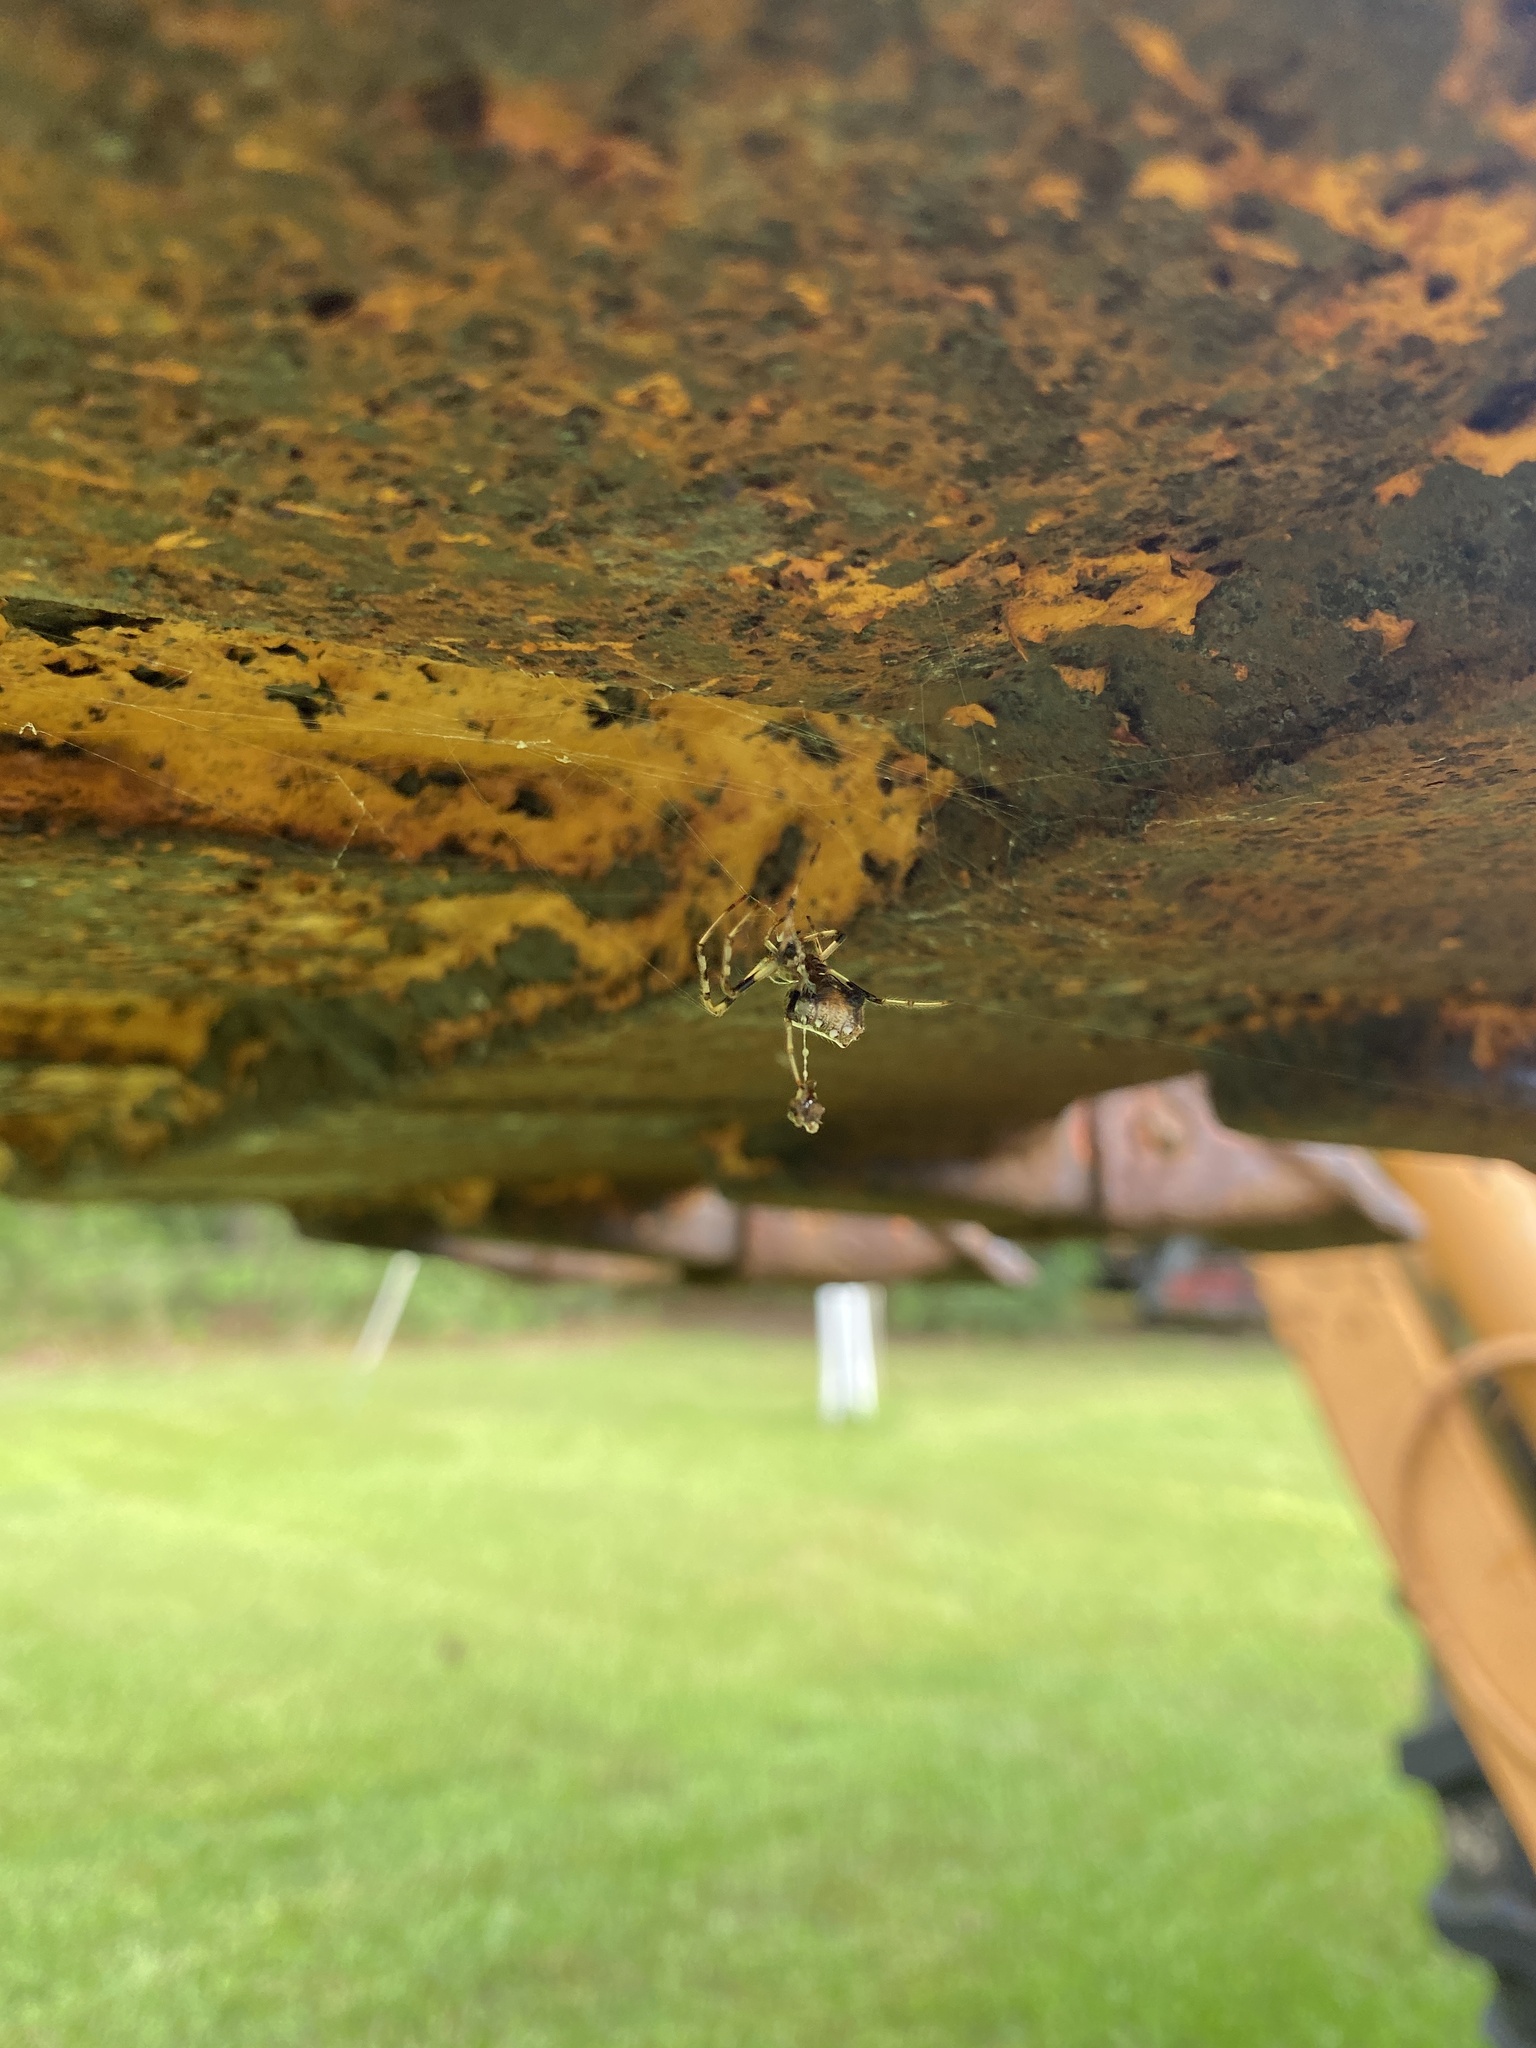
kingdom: Animalia
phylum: Arthropoda
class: Arachnida
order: Araneae
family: Araneidae
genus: Verrucosa
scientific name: Verrucosa arenata
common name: Orb weavers
